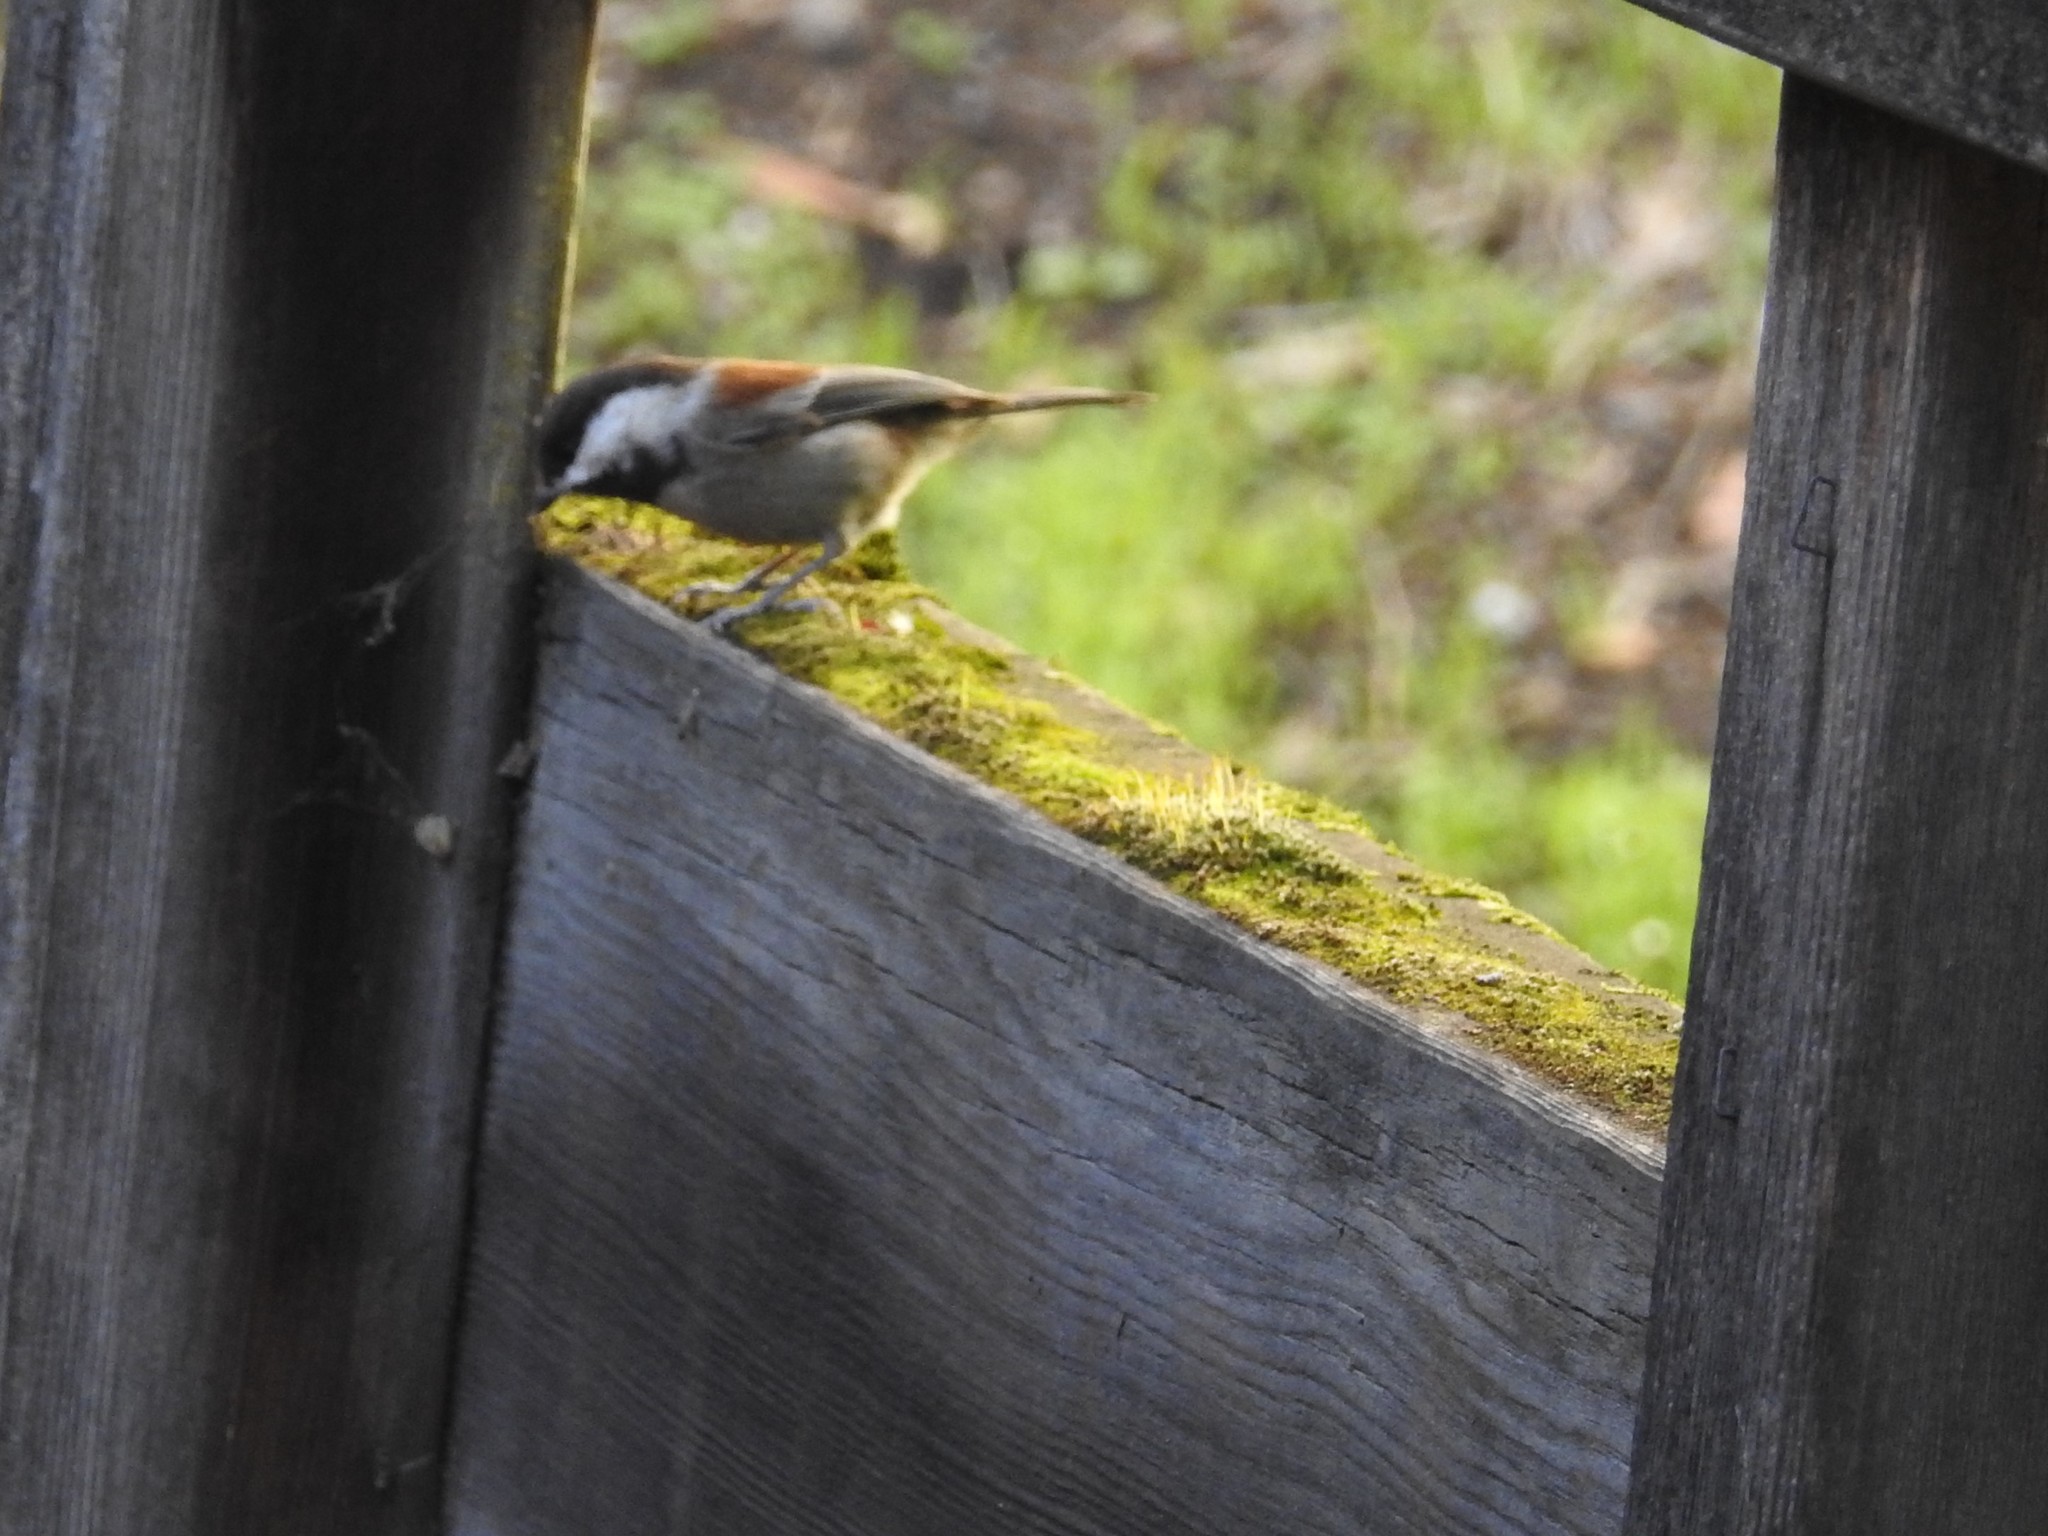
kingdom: Animalia
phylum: Chordata
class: Aves
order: Passeriformes
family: Paridae
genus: Poecile
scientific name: Poecile rufescens
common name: Chestnut-backed chickadee
